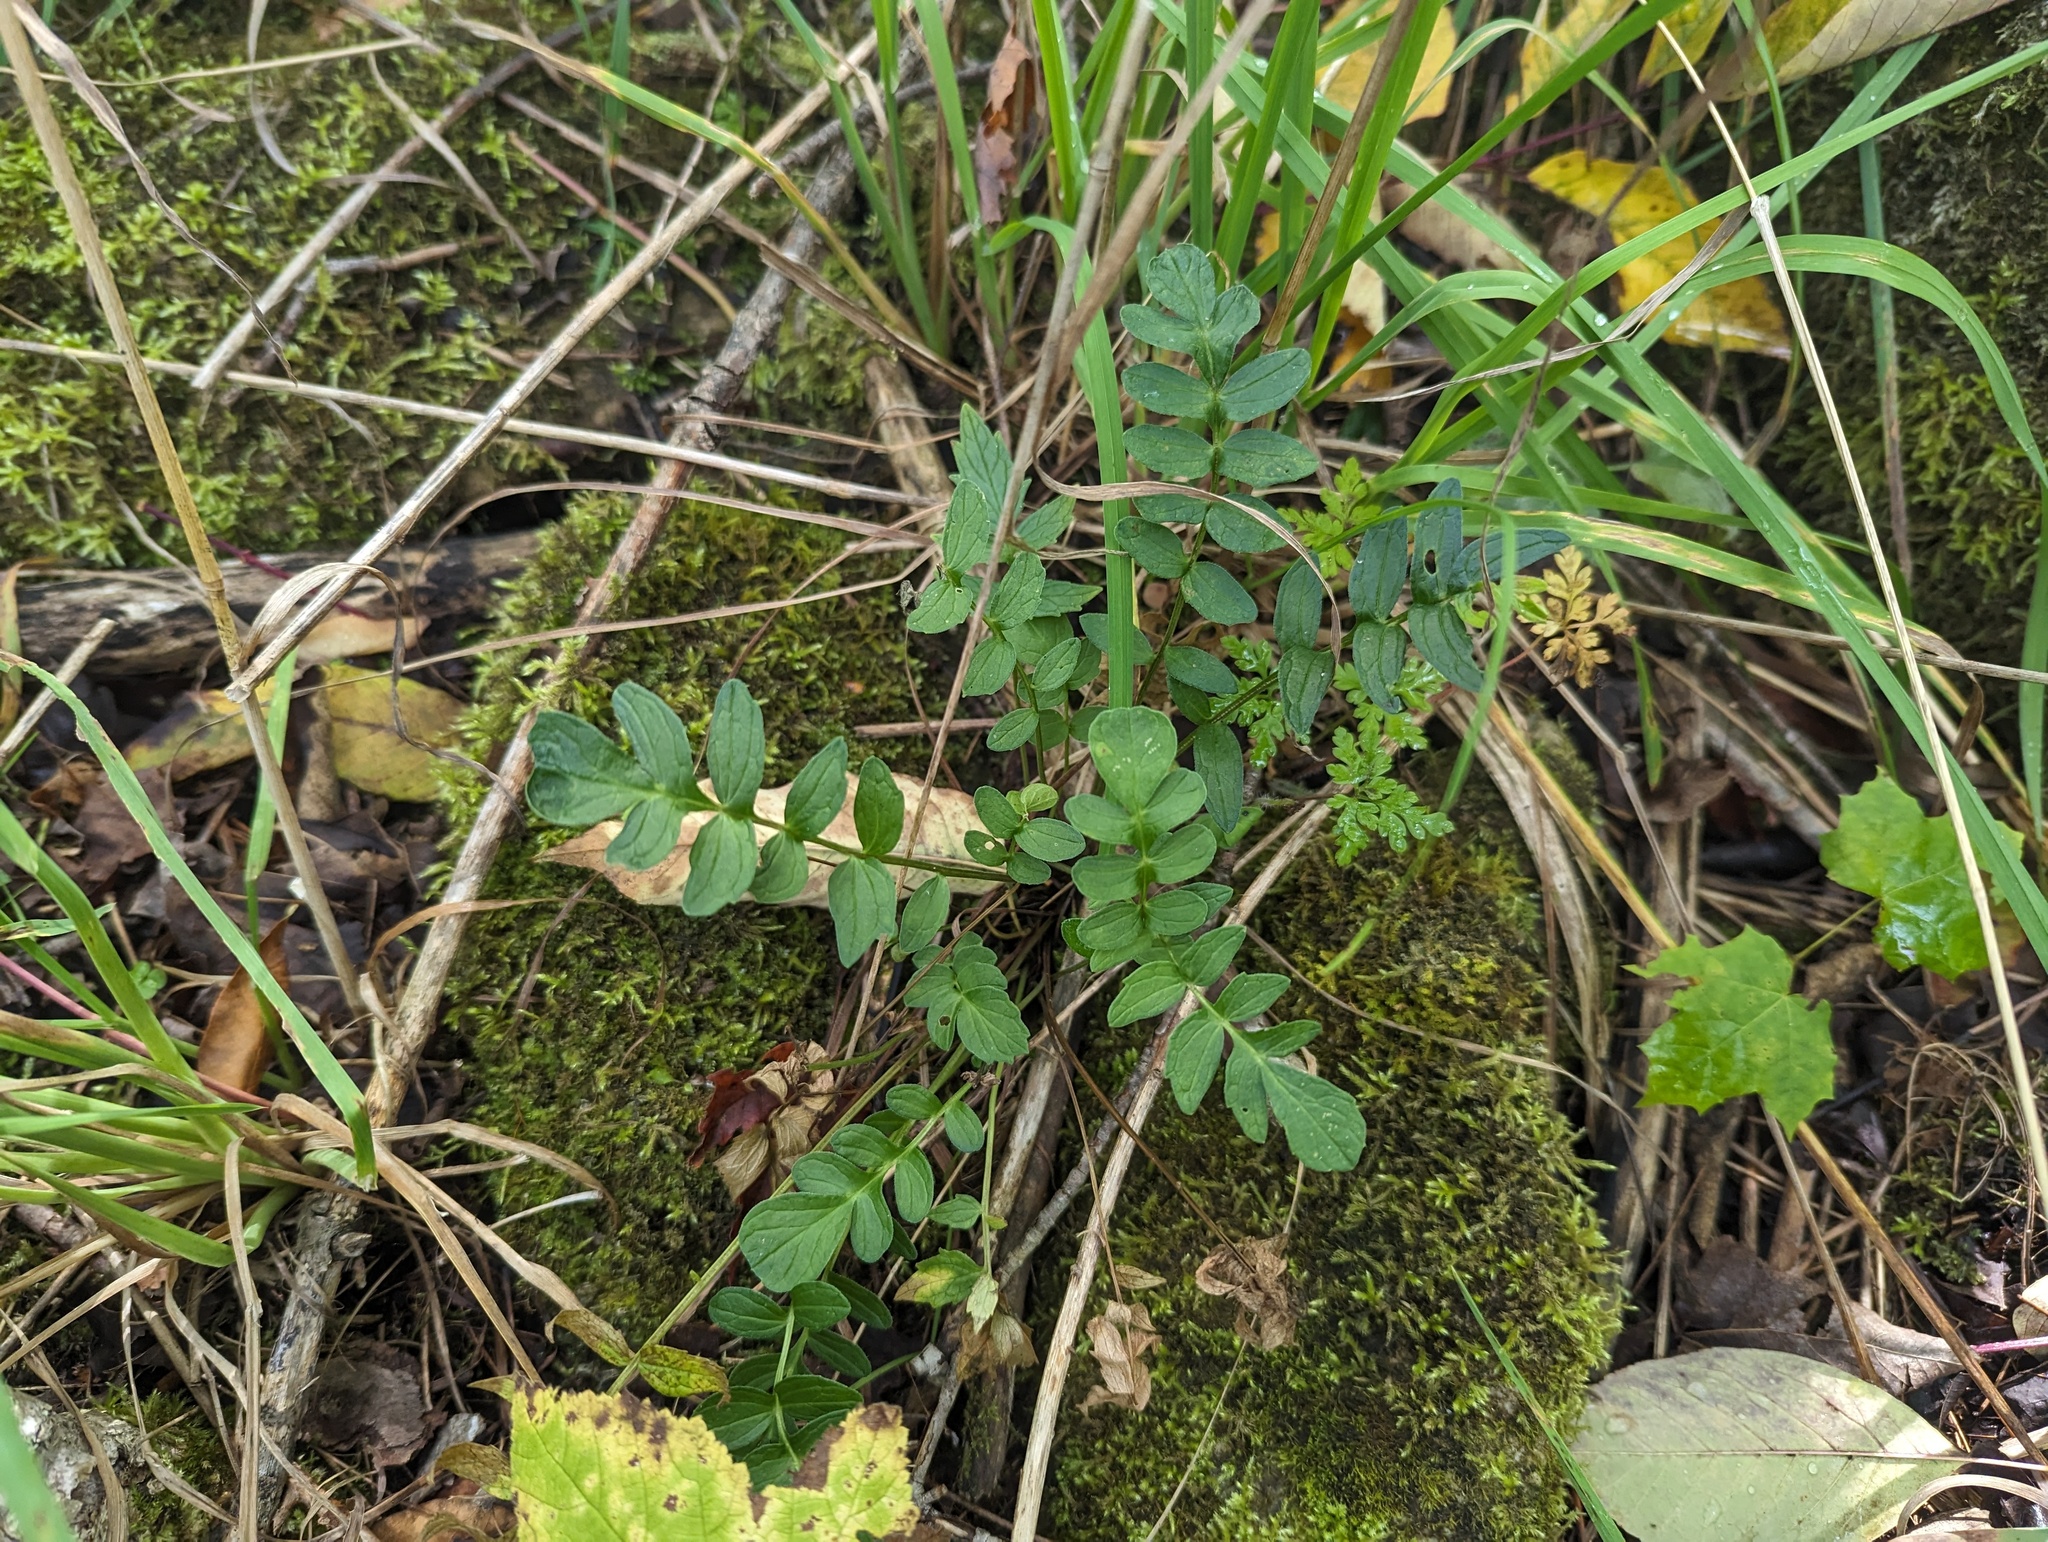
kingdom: Plantae
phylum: Tracheophyta
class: Magnoliopsida
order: Dipsacales
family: Caprifoliaceae
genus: Valeriana
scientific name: Valeriana officinalis
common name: Common valerian
